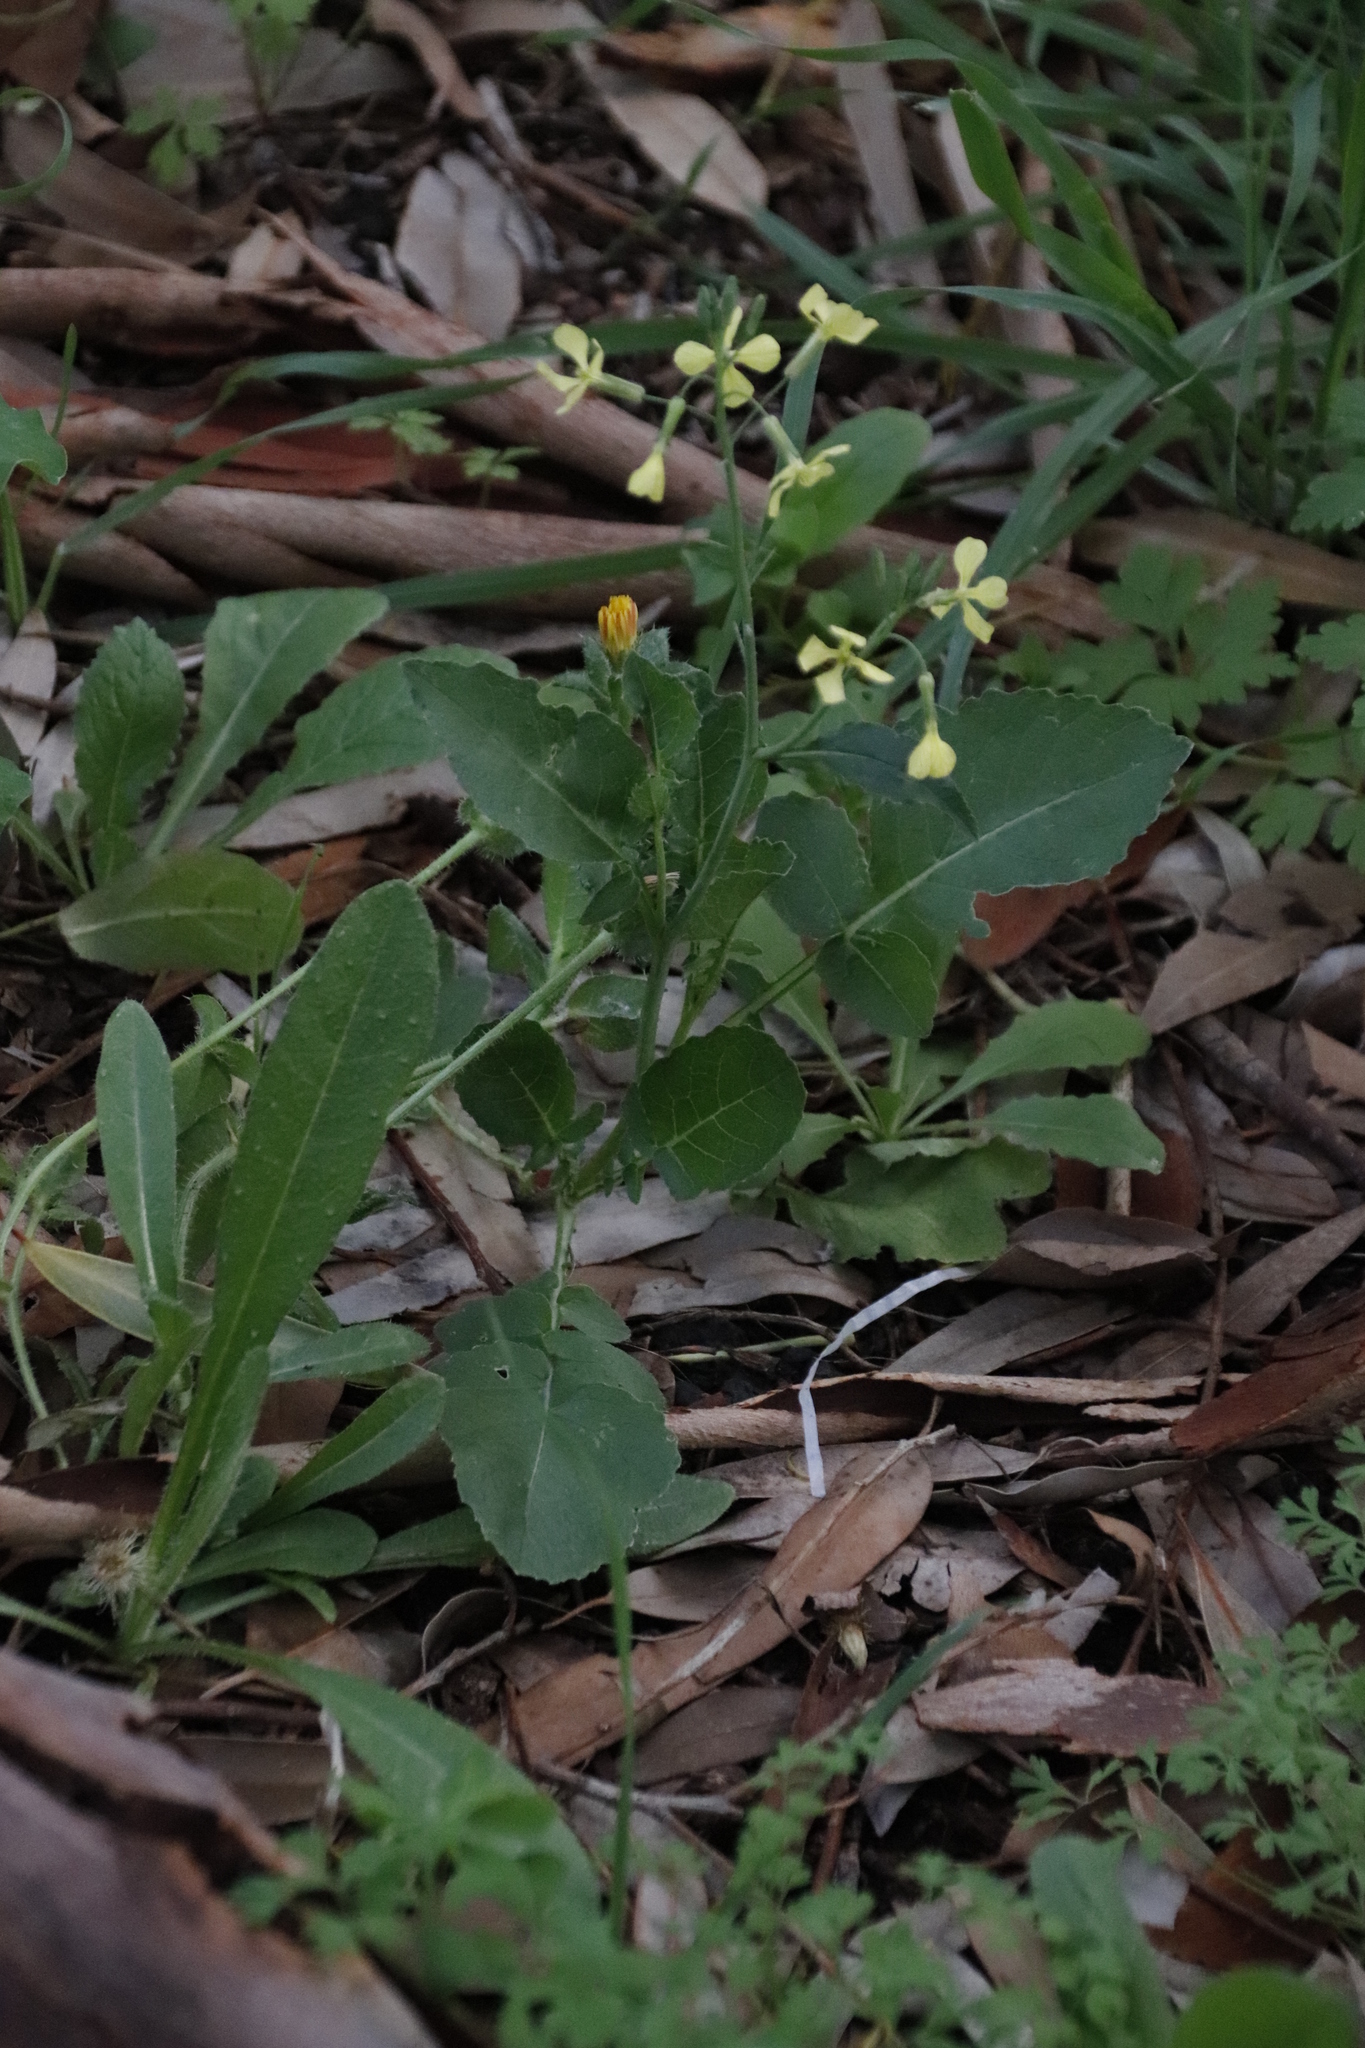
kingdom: Plantae
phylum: Tracheophyta
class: Magnoliopsida
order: Brassicales
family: Brassicaceae
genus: Raphanus
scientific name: Raphanus raphanistrum
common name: Wild radish
